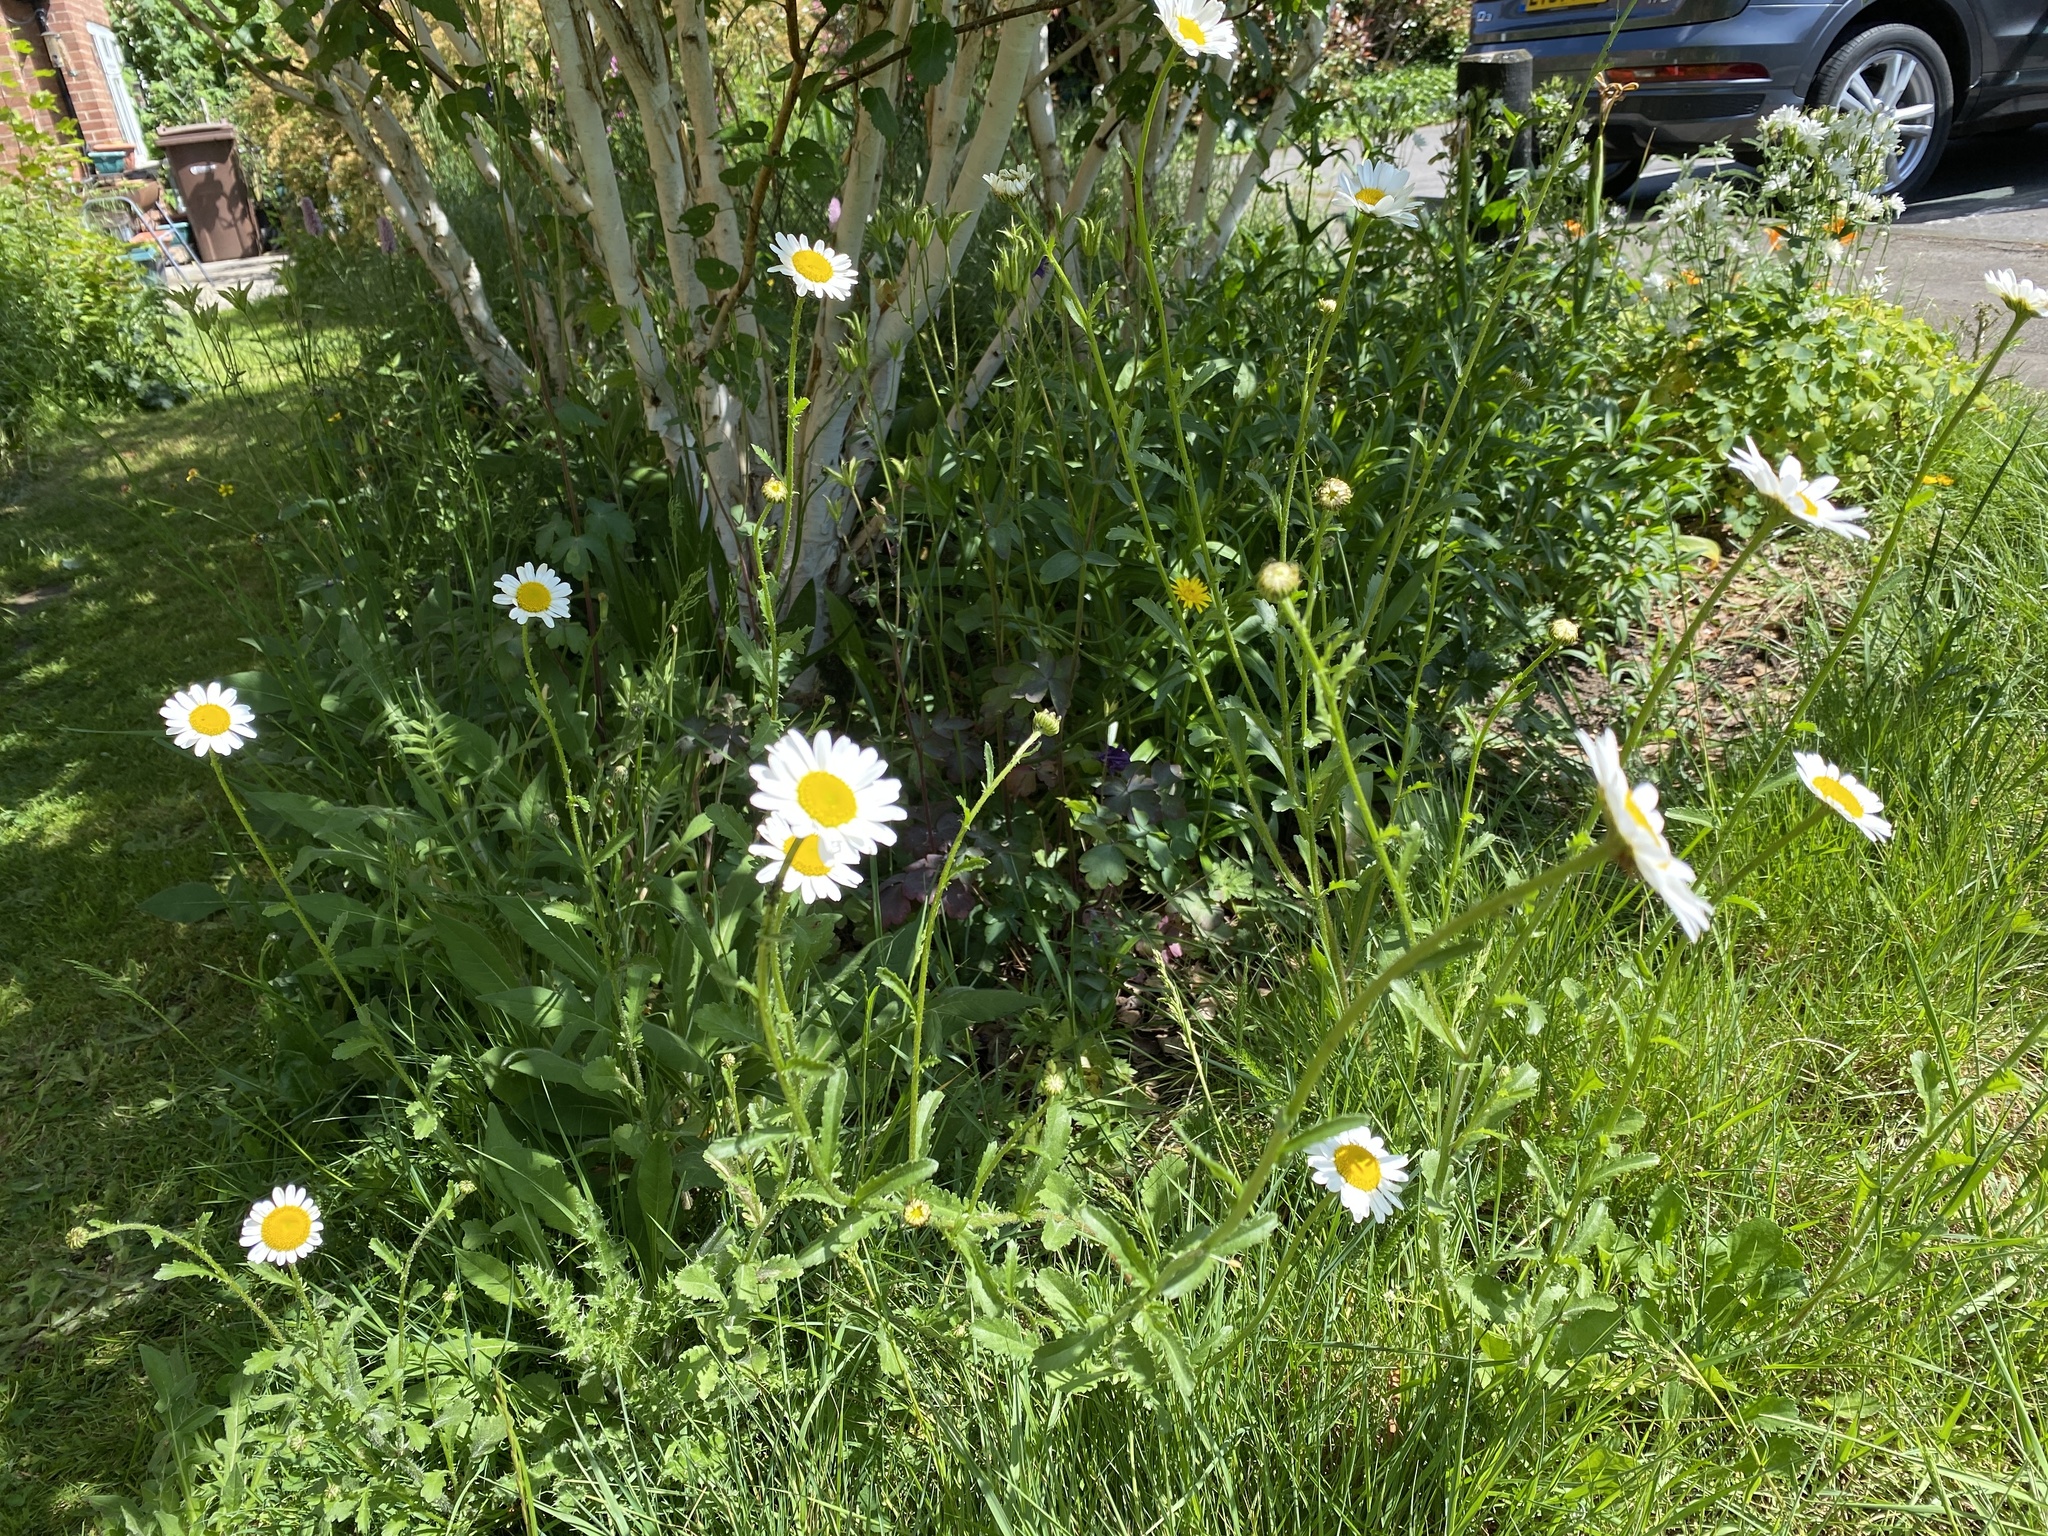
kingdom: Plantae
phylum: Tracheophyta
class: Magnoliopsida
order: Asterales
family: Asteraceae
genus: Leucanthemum
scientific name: Leucanthemum vulgare
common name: Oxeye daisy
